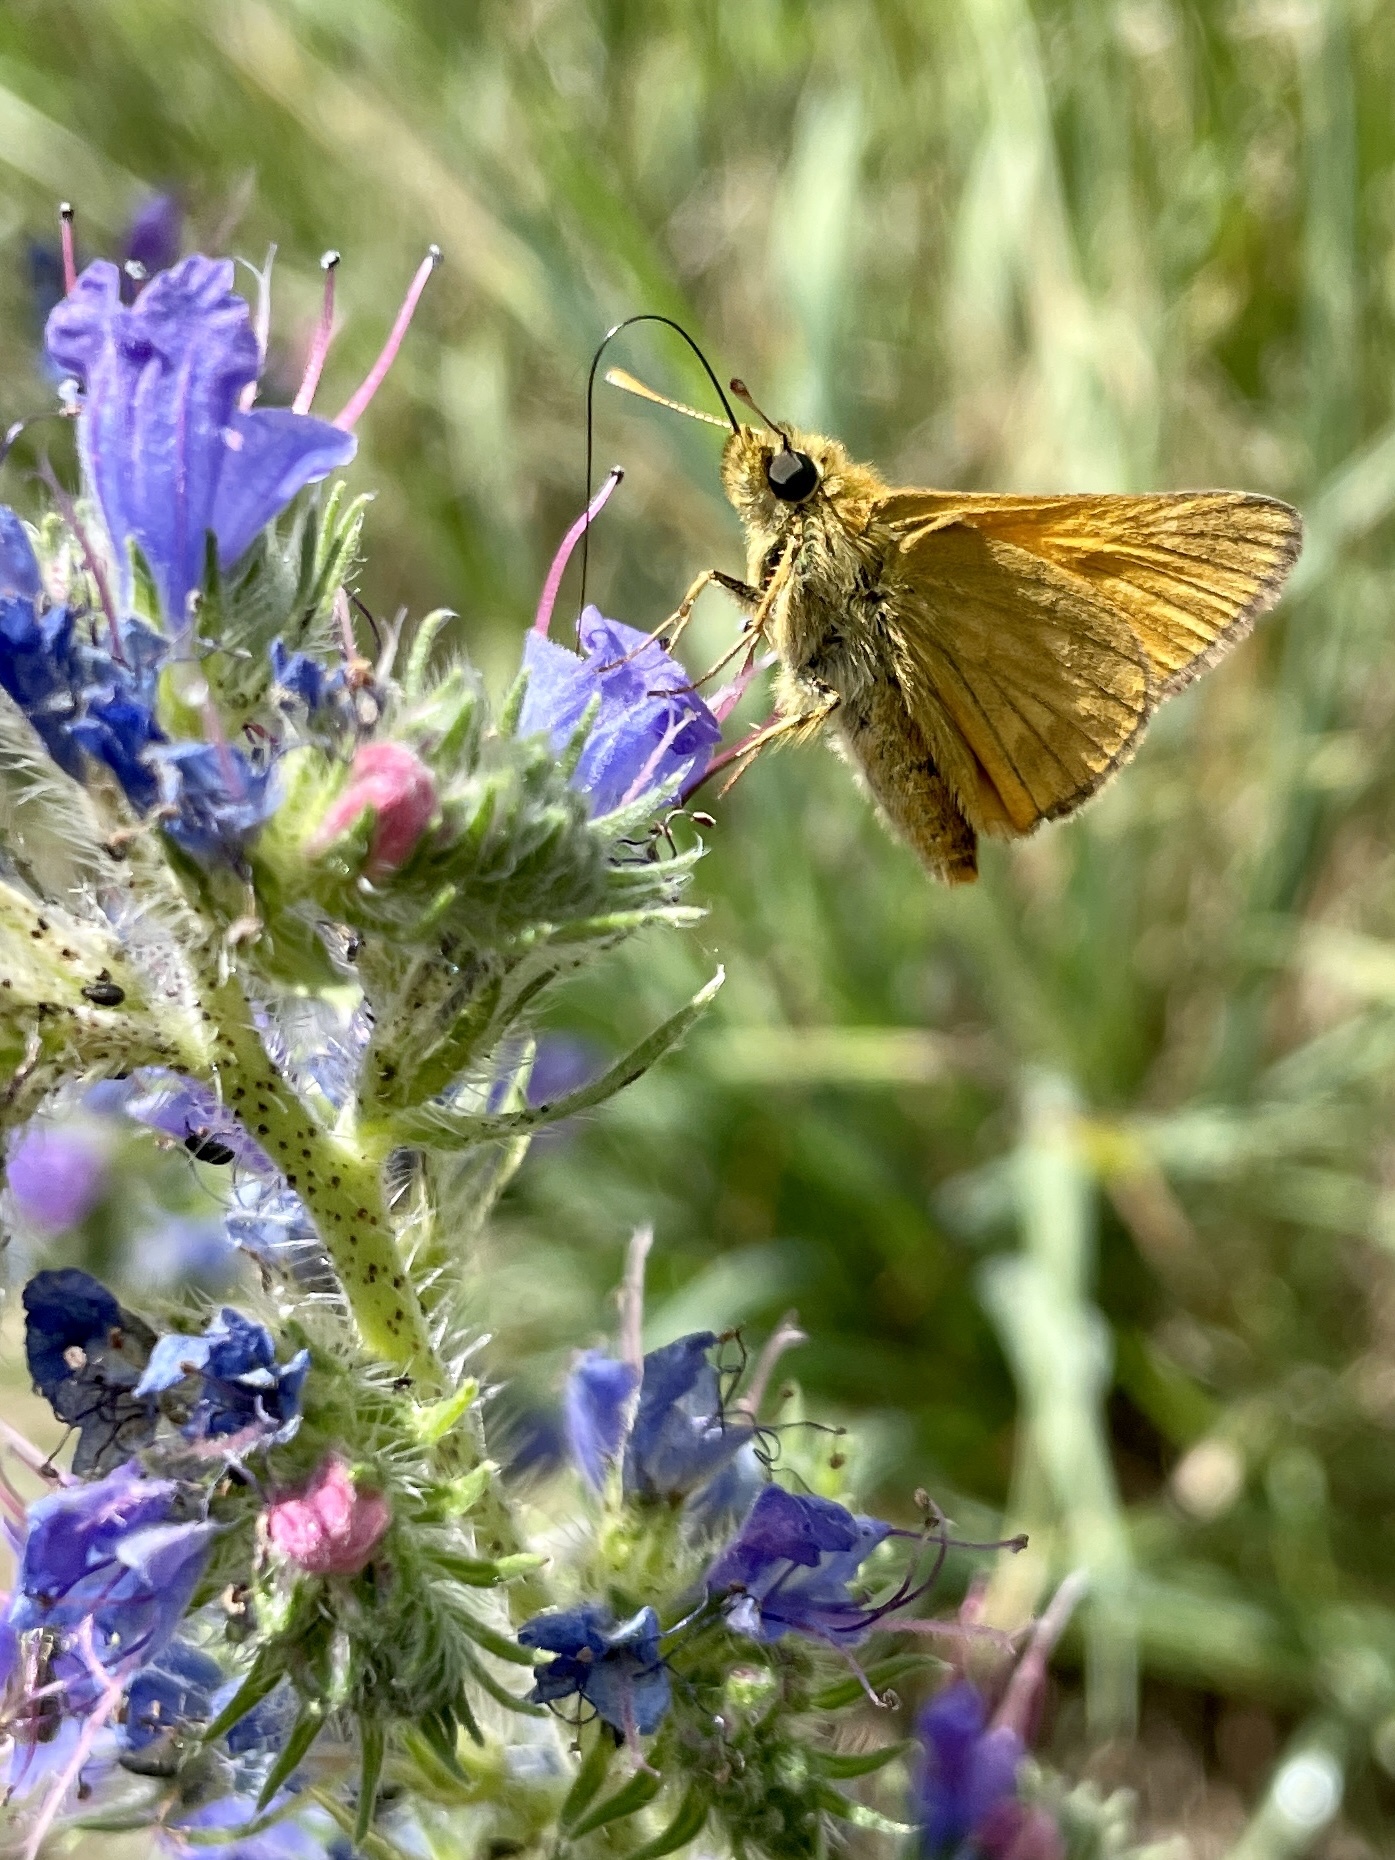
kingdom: Animalia
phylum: Arthropoda
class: Insecta
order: Lepidoptera
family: Hesperiidae
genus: Ochlodes
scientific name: Ochlodes venata
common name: Large skipper
